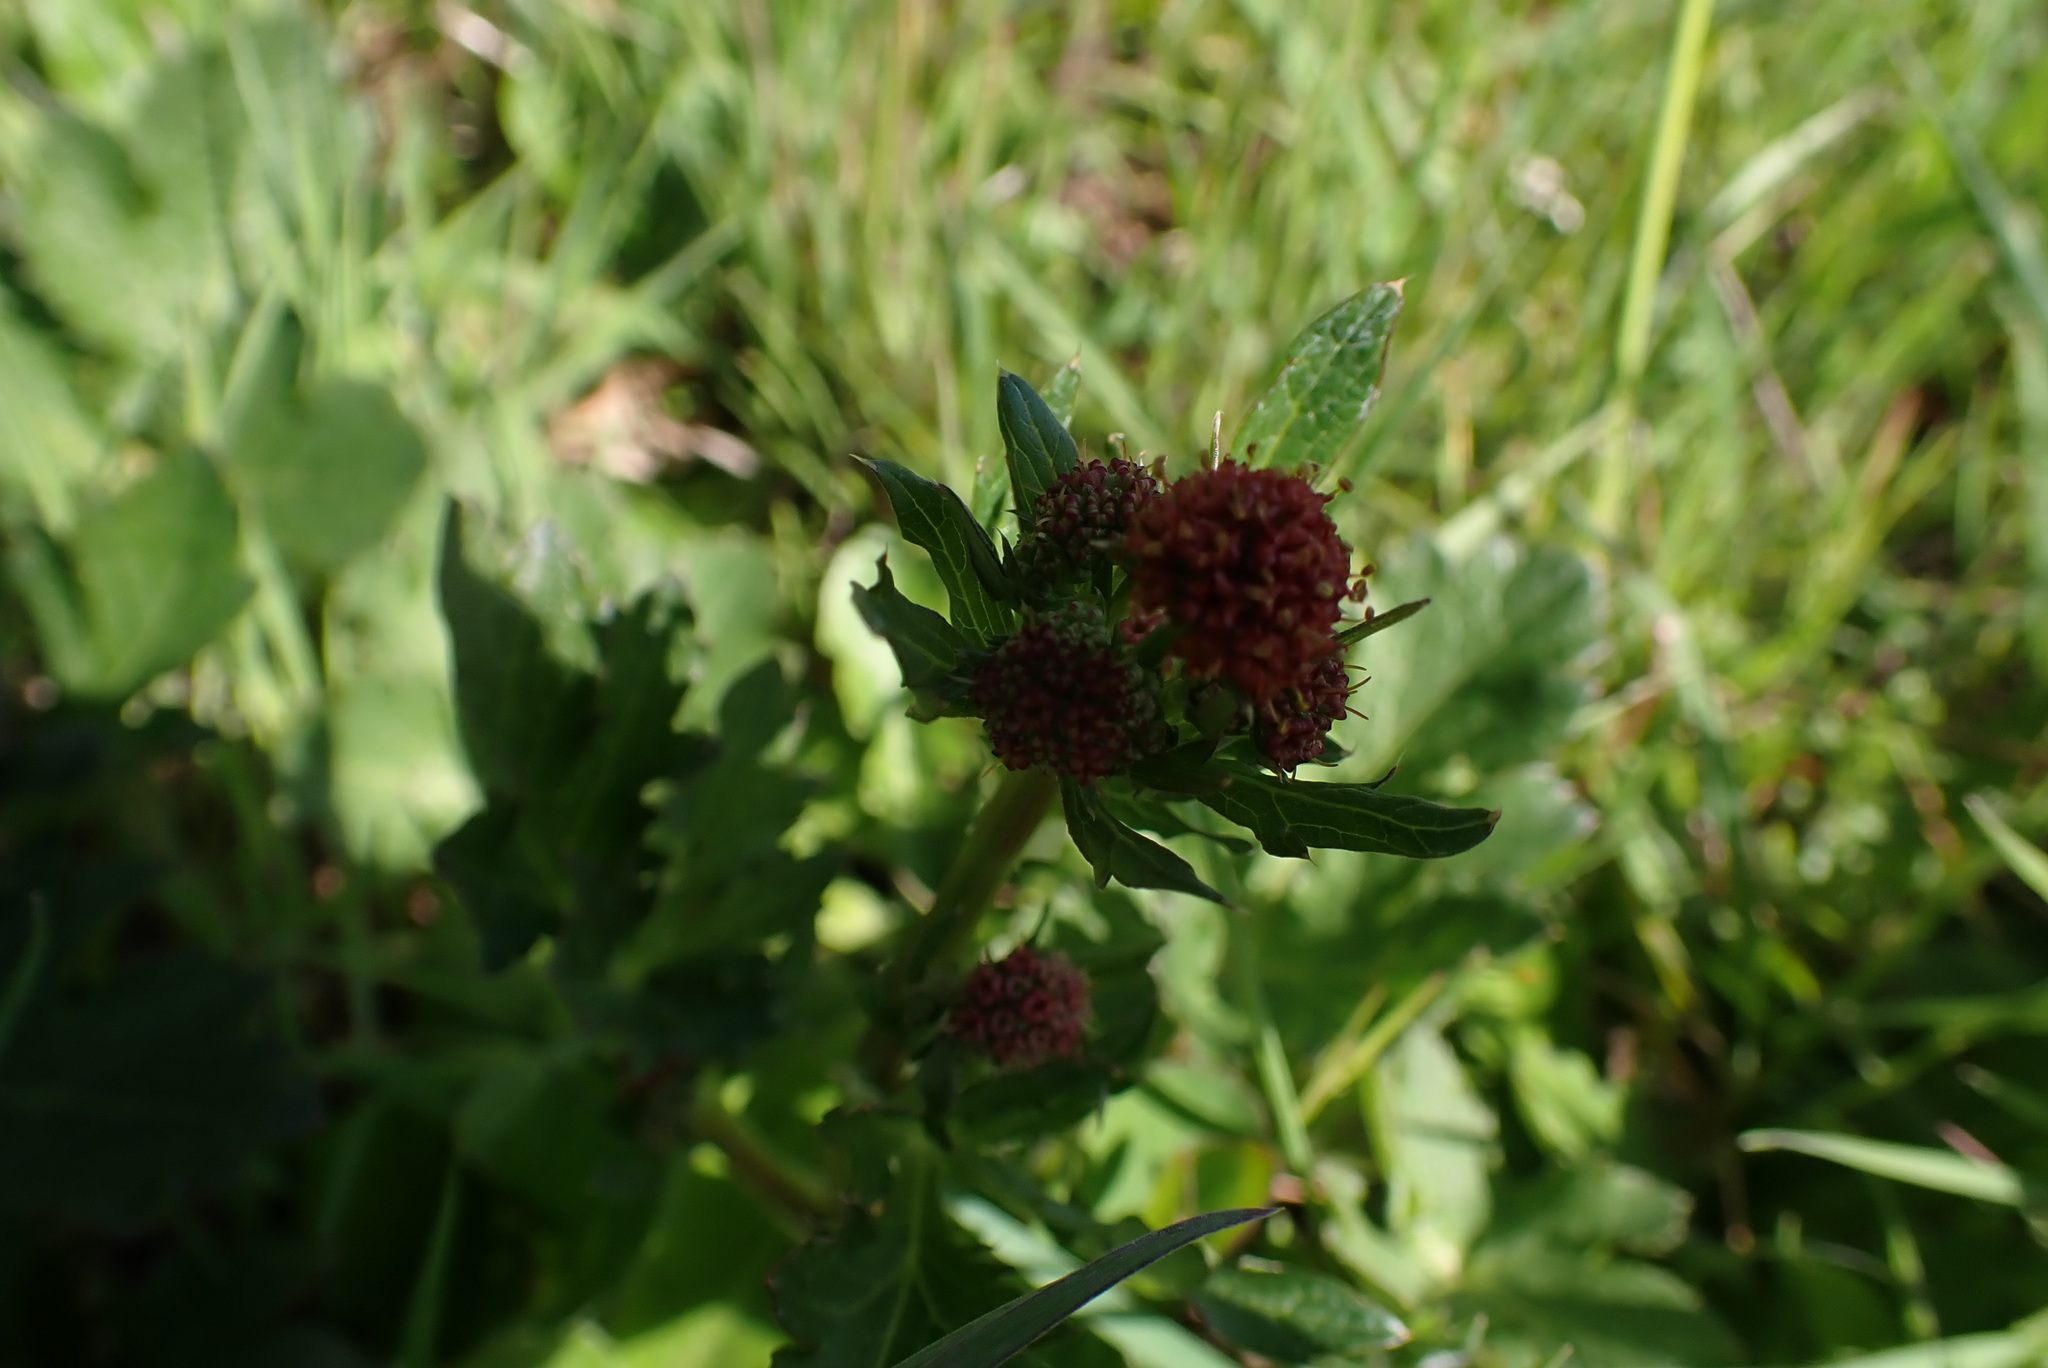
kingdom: Plantae
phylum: Tracheophyta
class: Magnoliopsida
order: Apiales
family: Apiaceae
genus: Sanicula
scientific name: Sanicula crassicaulis
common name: Western snakeroot
